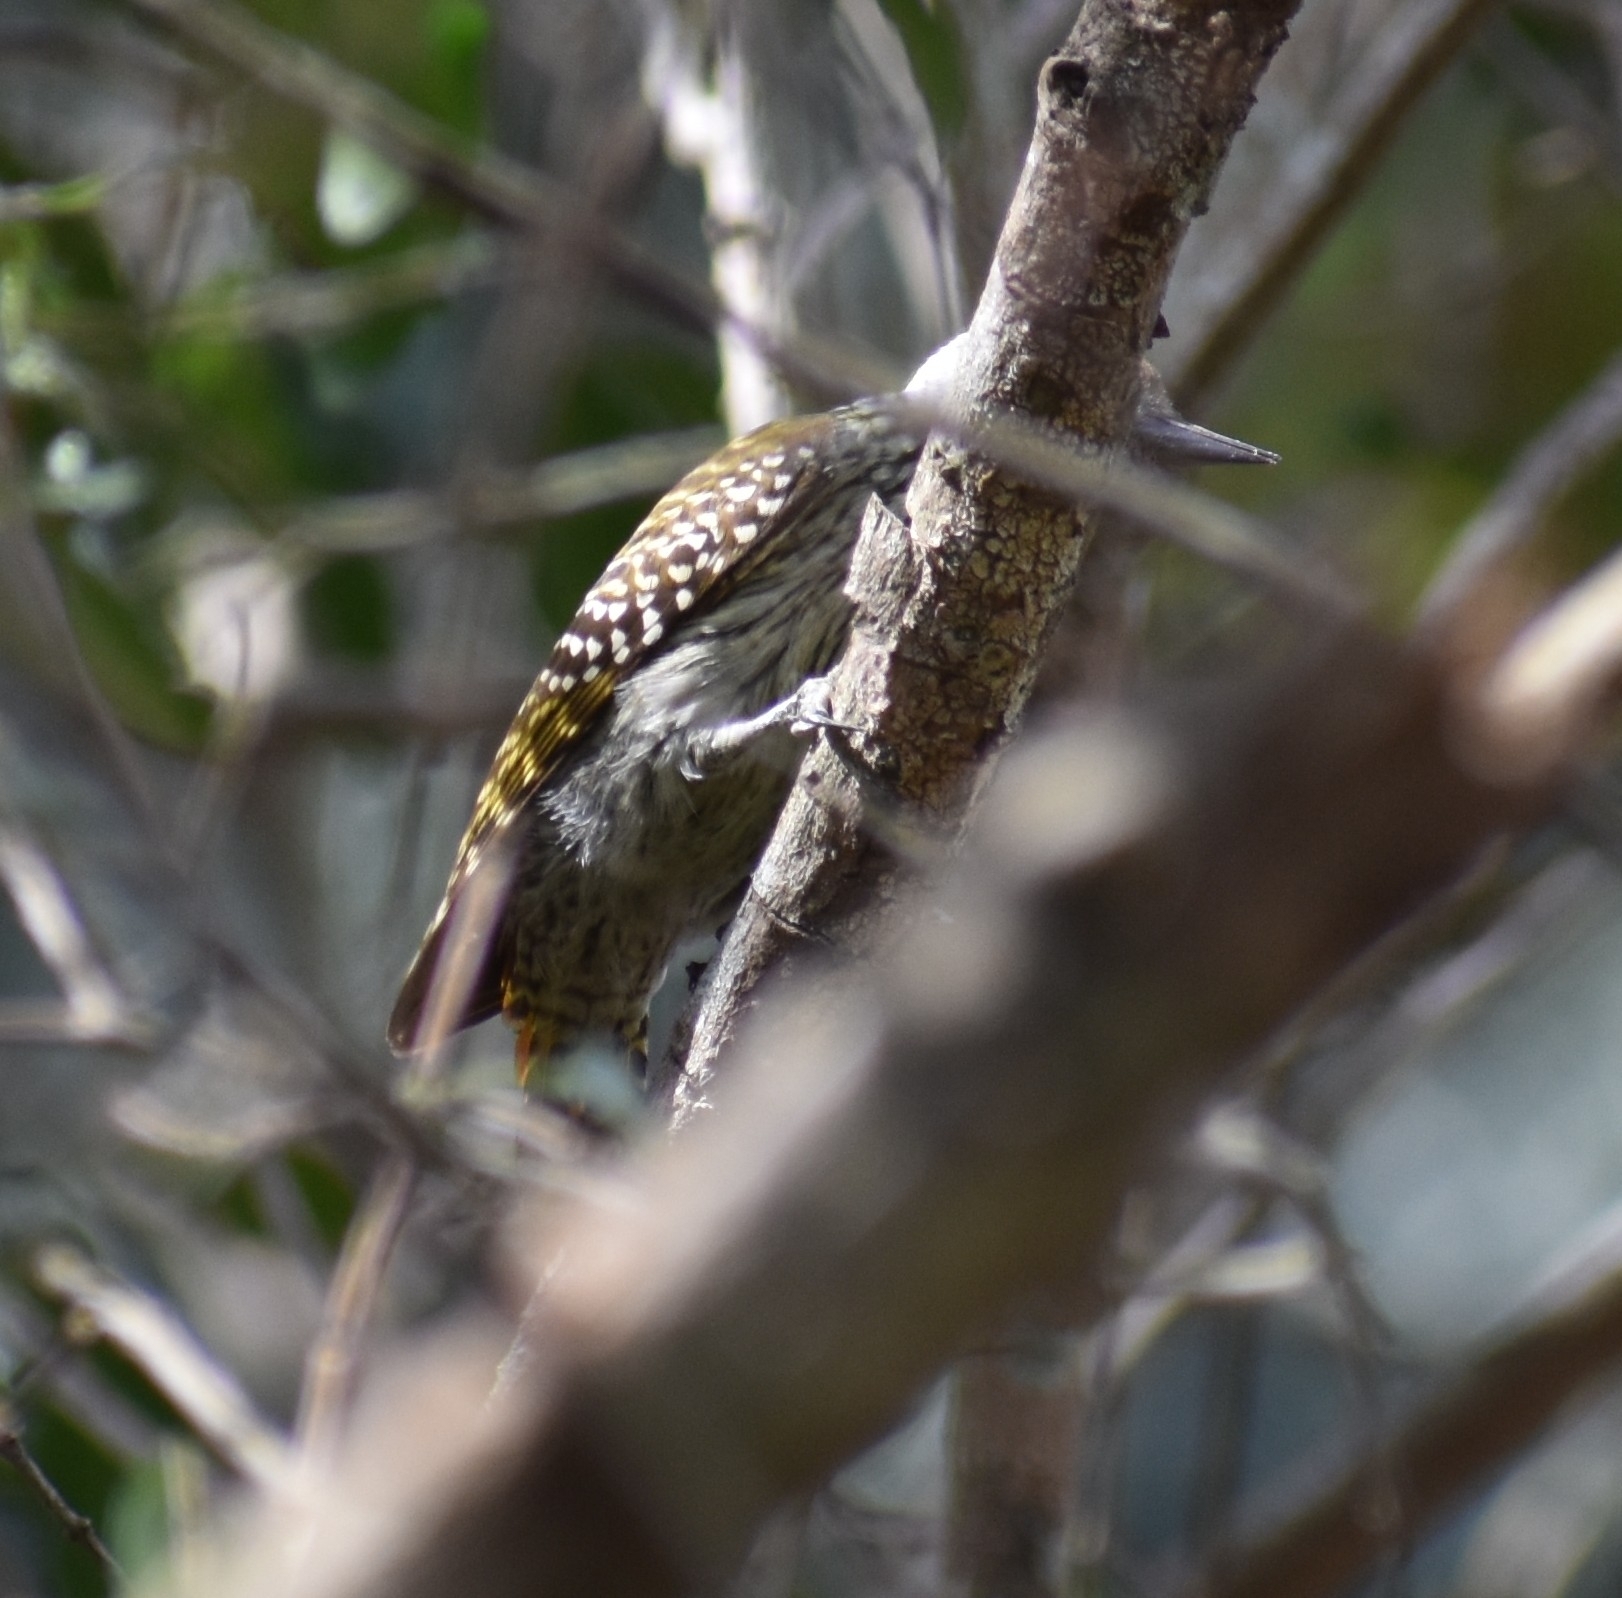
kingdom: Animalia
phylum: Chordata
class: Aves
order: Piciformes
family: Picidae
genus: Dendropicos
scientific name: Dendropicos fuscescens
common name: Cardinal woodpecker
